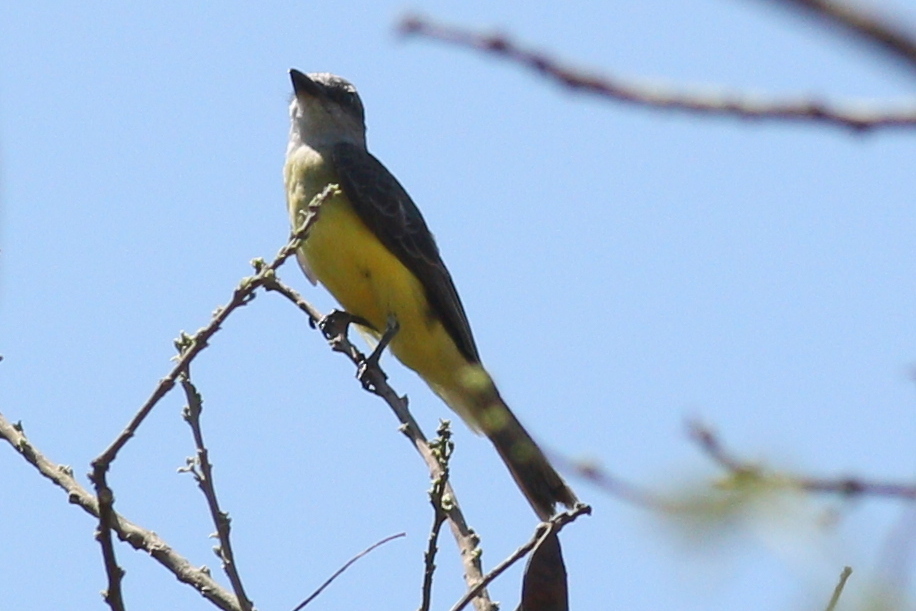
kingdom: Animalia
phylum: Chordata
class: Aves
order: Passeriformes
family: Tyrannidae
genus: Tyrannus
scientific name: Tyrannus melancholicus
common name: Tropical kingbird
